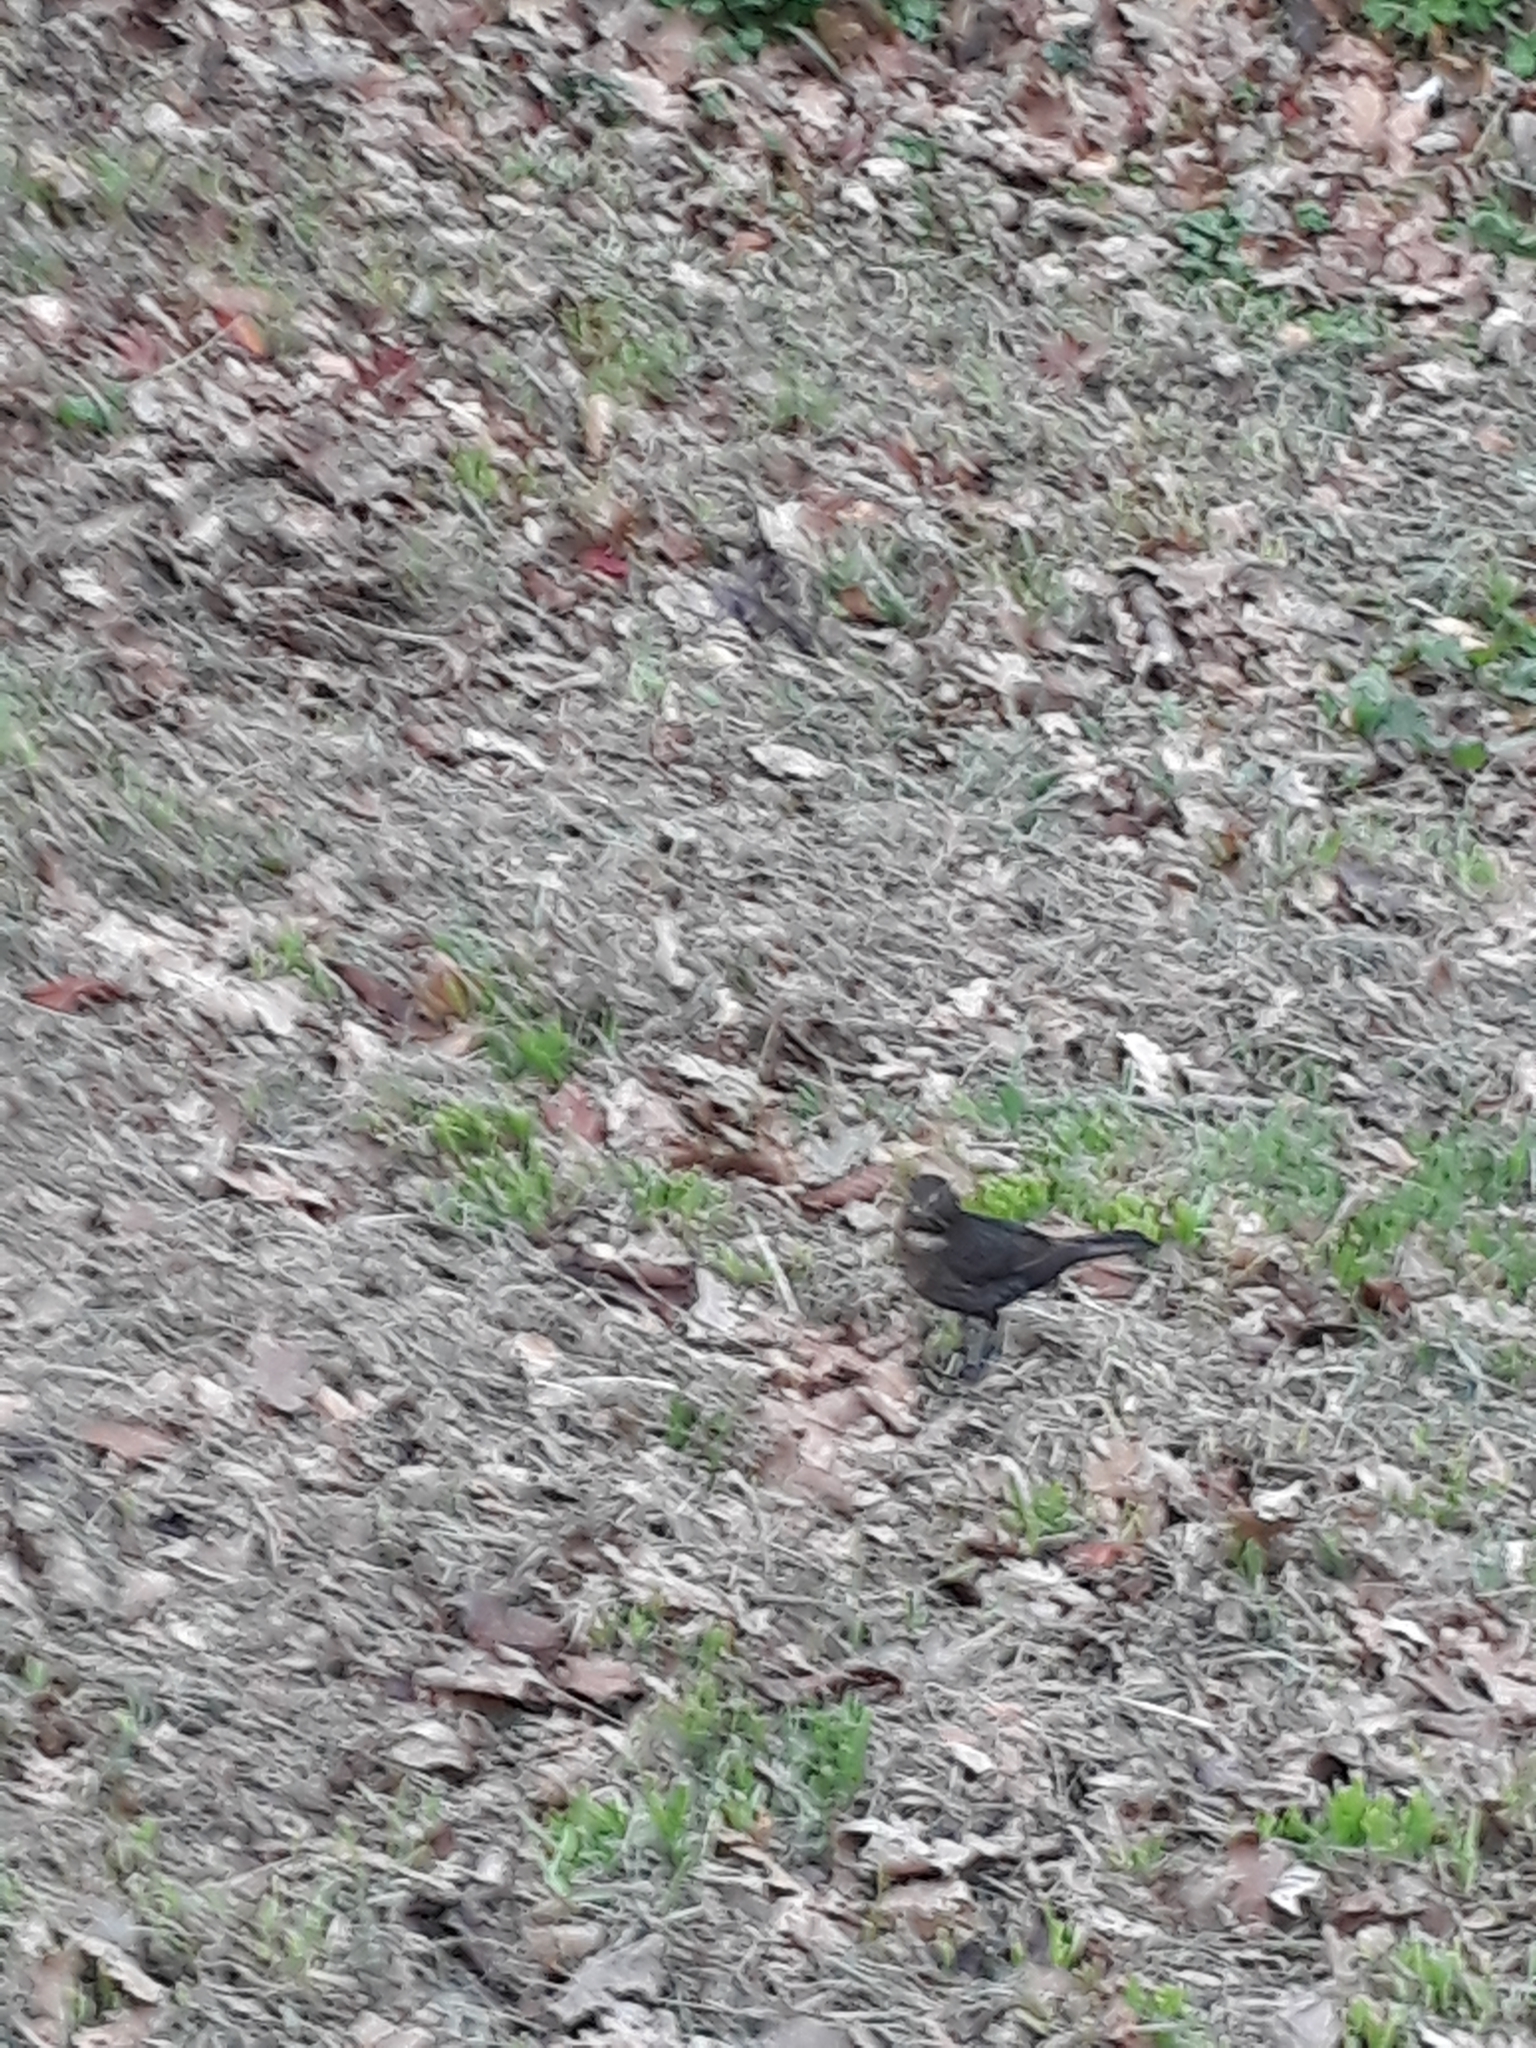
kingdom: Animalia
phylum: Chordata
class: Aves
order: Passeriformes
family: Turdidae
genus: Turdus
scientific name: Turdus merula
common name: Common blackbird
